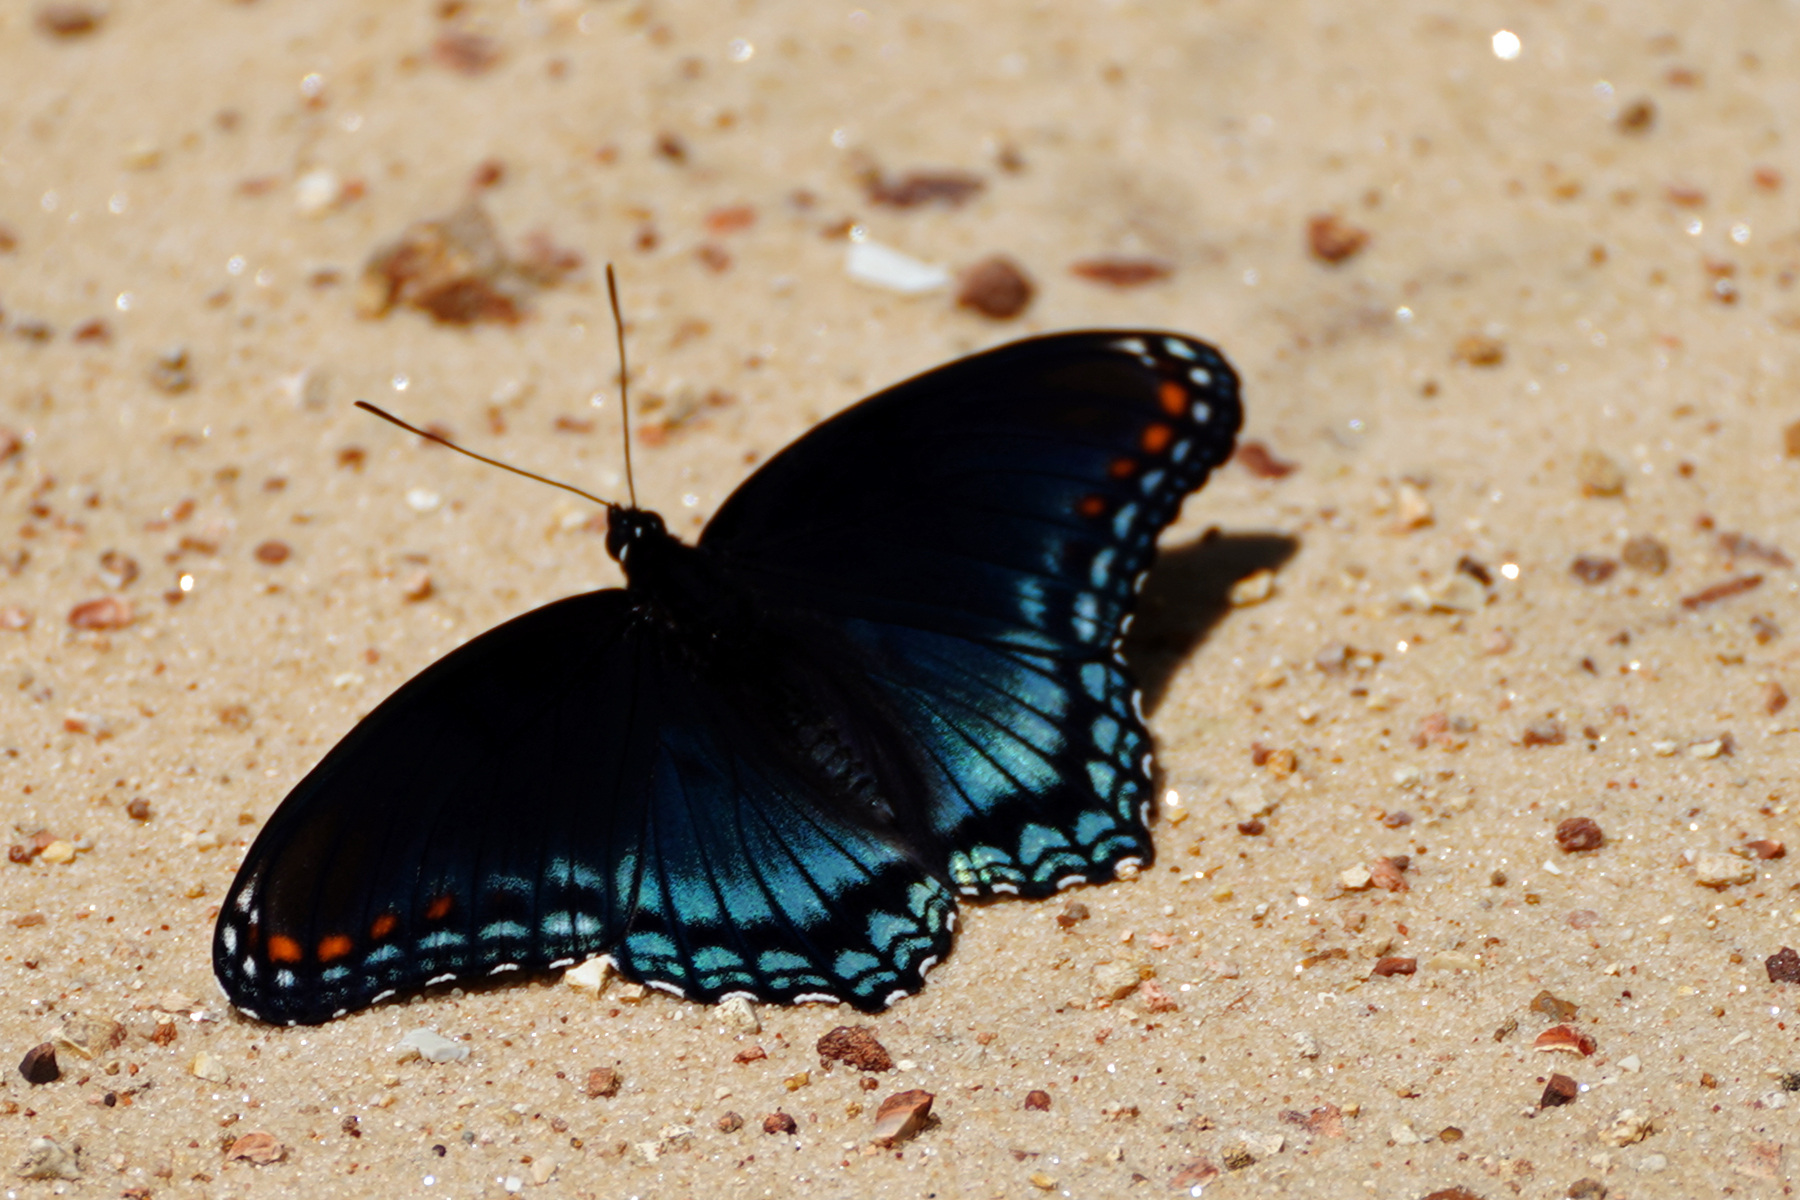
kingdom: Animalia
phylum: Arthropoda
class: Insecta
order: Lepidoptera
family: Nymphalidae
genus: Limenitis
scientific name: Limenitis astyanax
